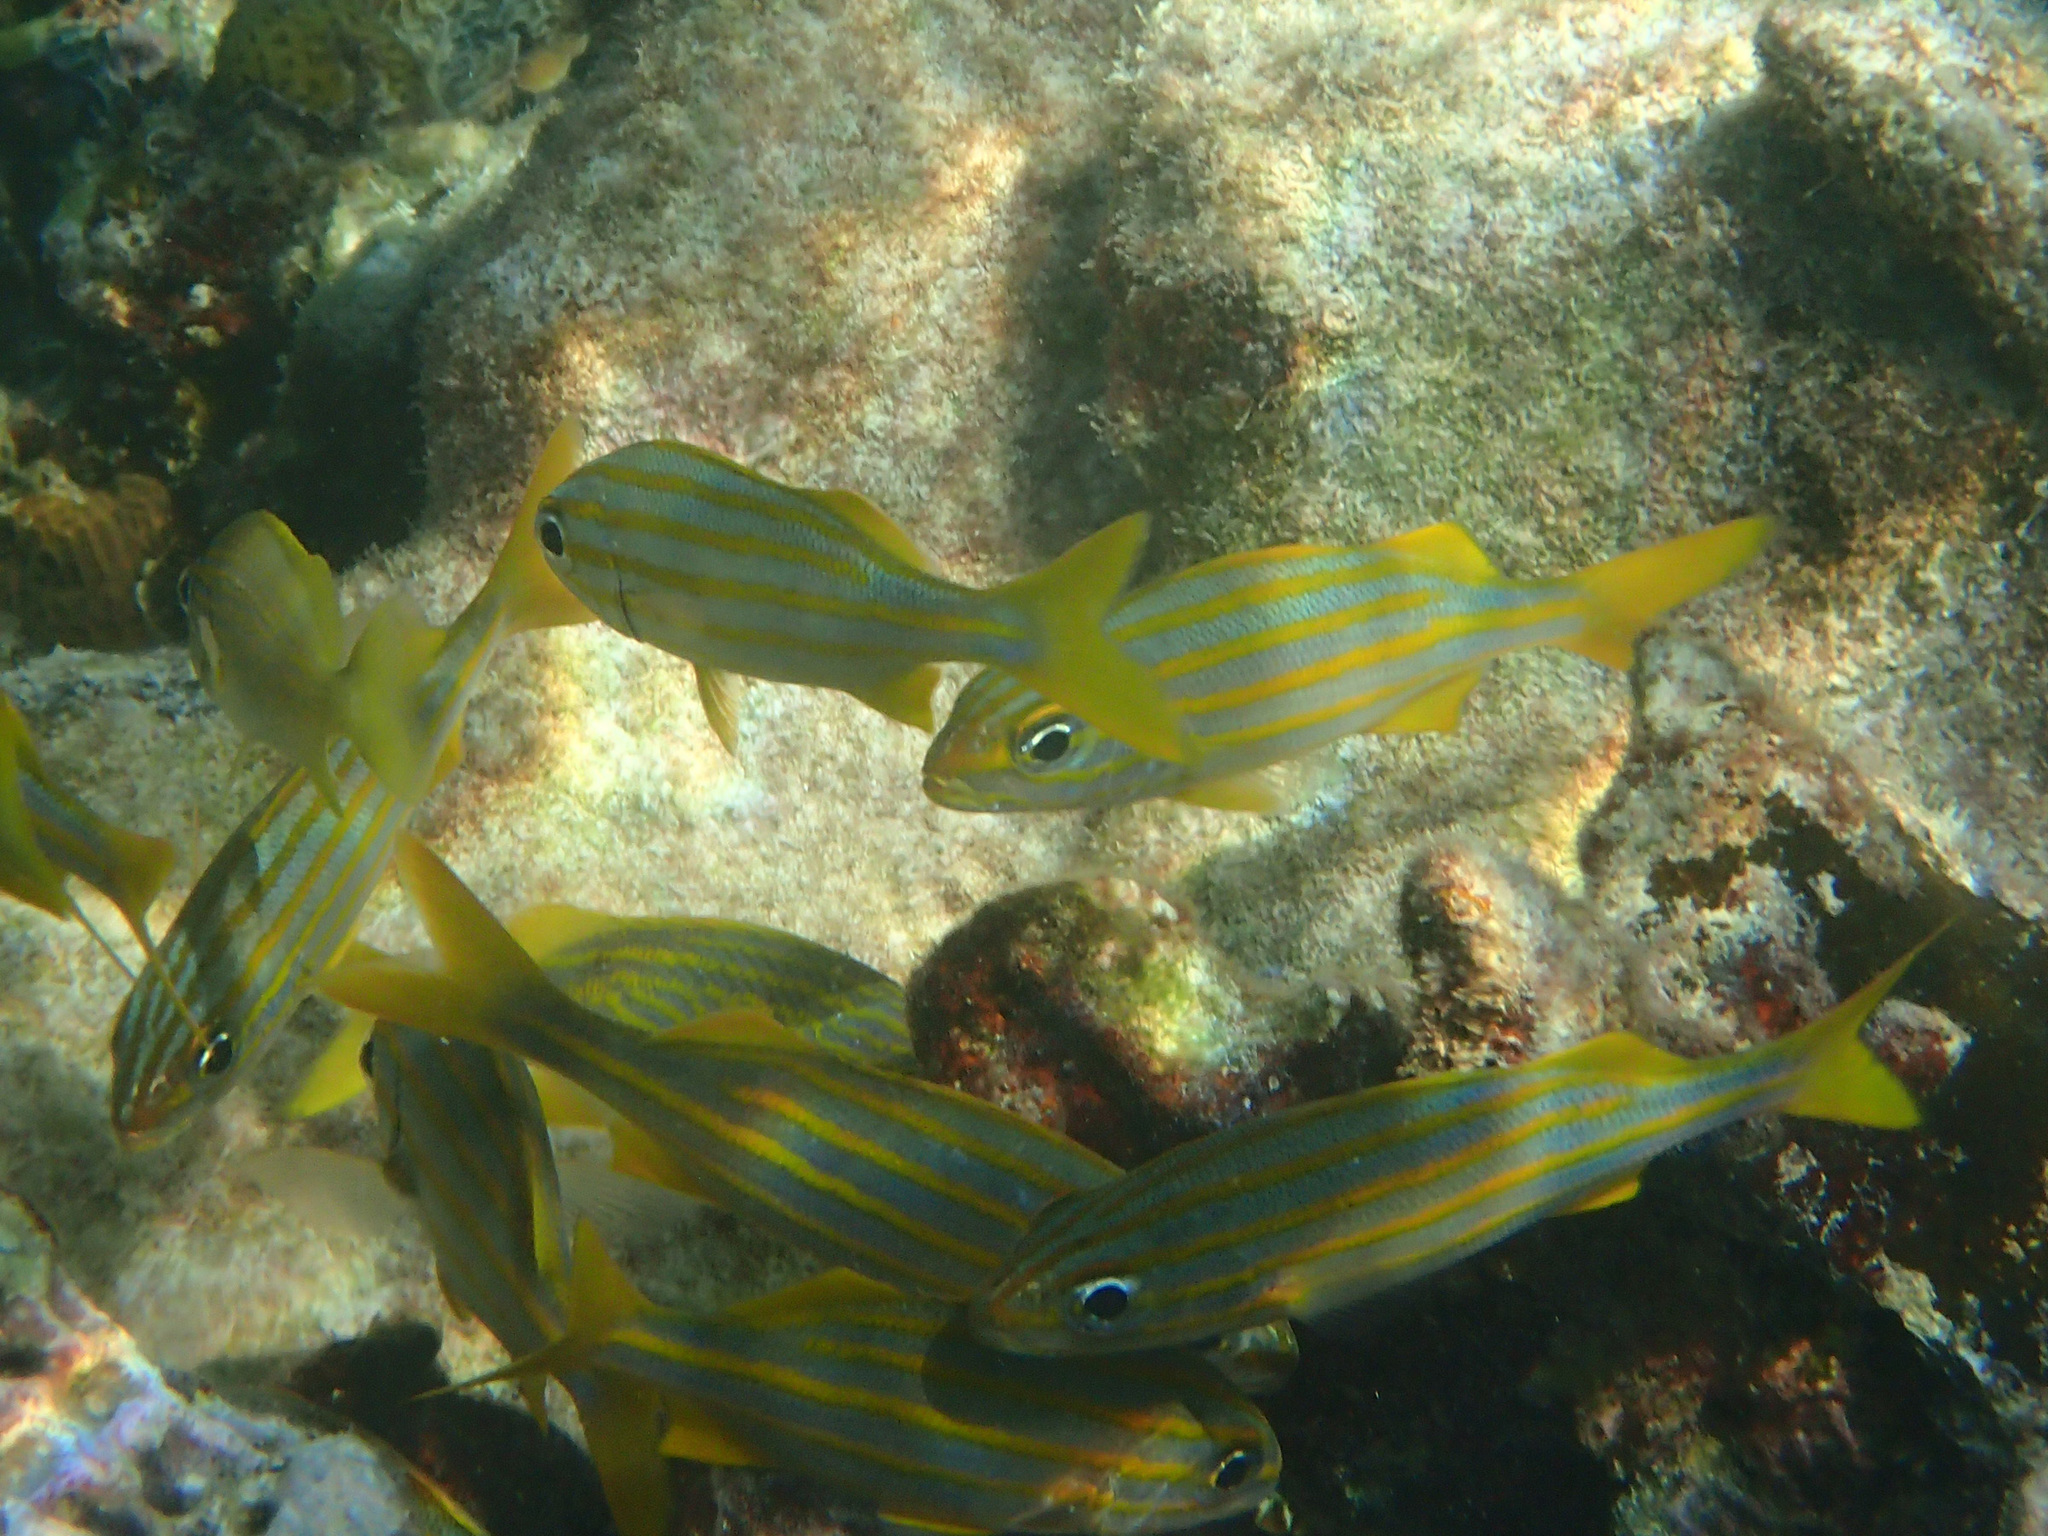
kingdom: Animalia
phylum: Chordata
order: Perciformes
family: Haemulidae
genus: Haemulon
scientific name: Haemulon chrysargyreum
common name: Smallmouth grunt
